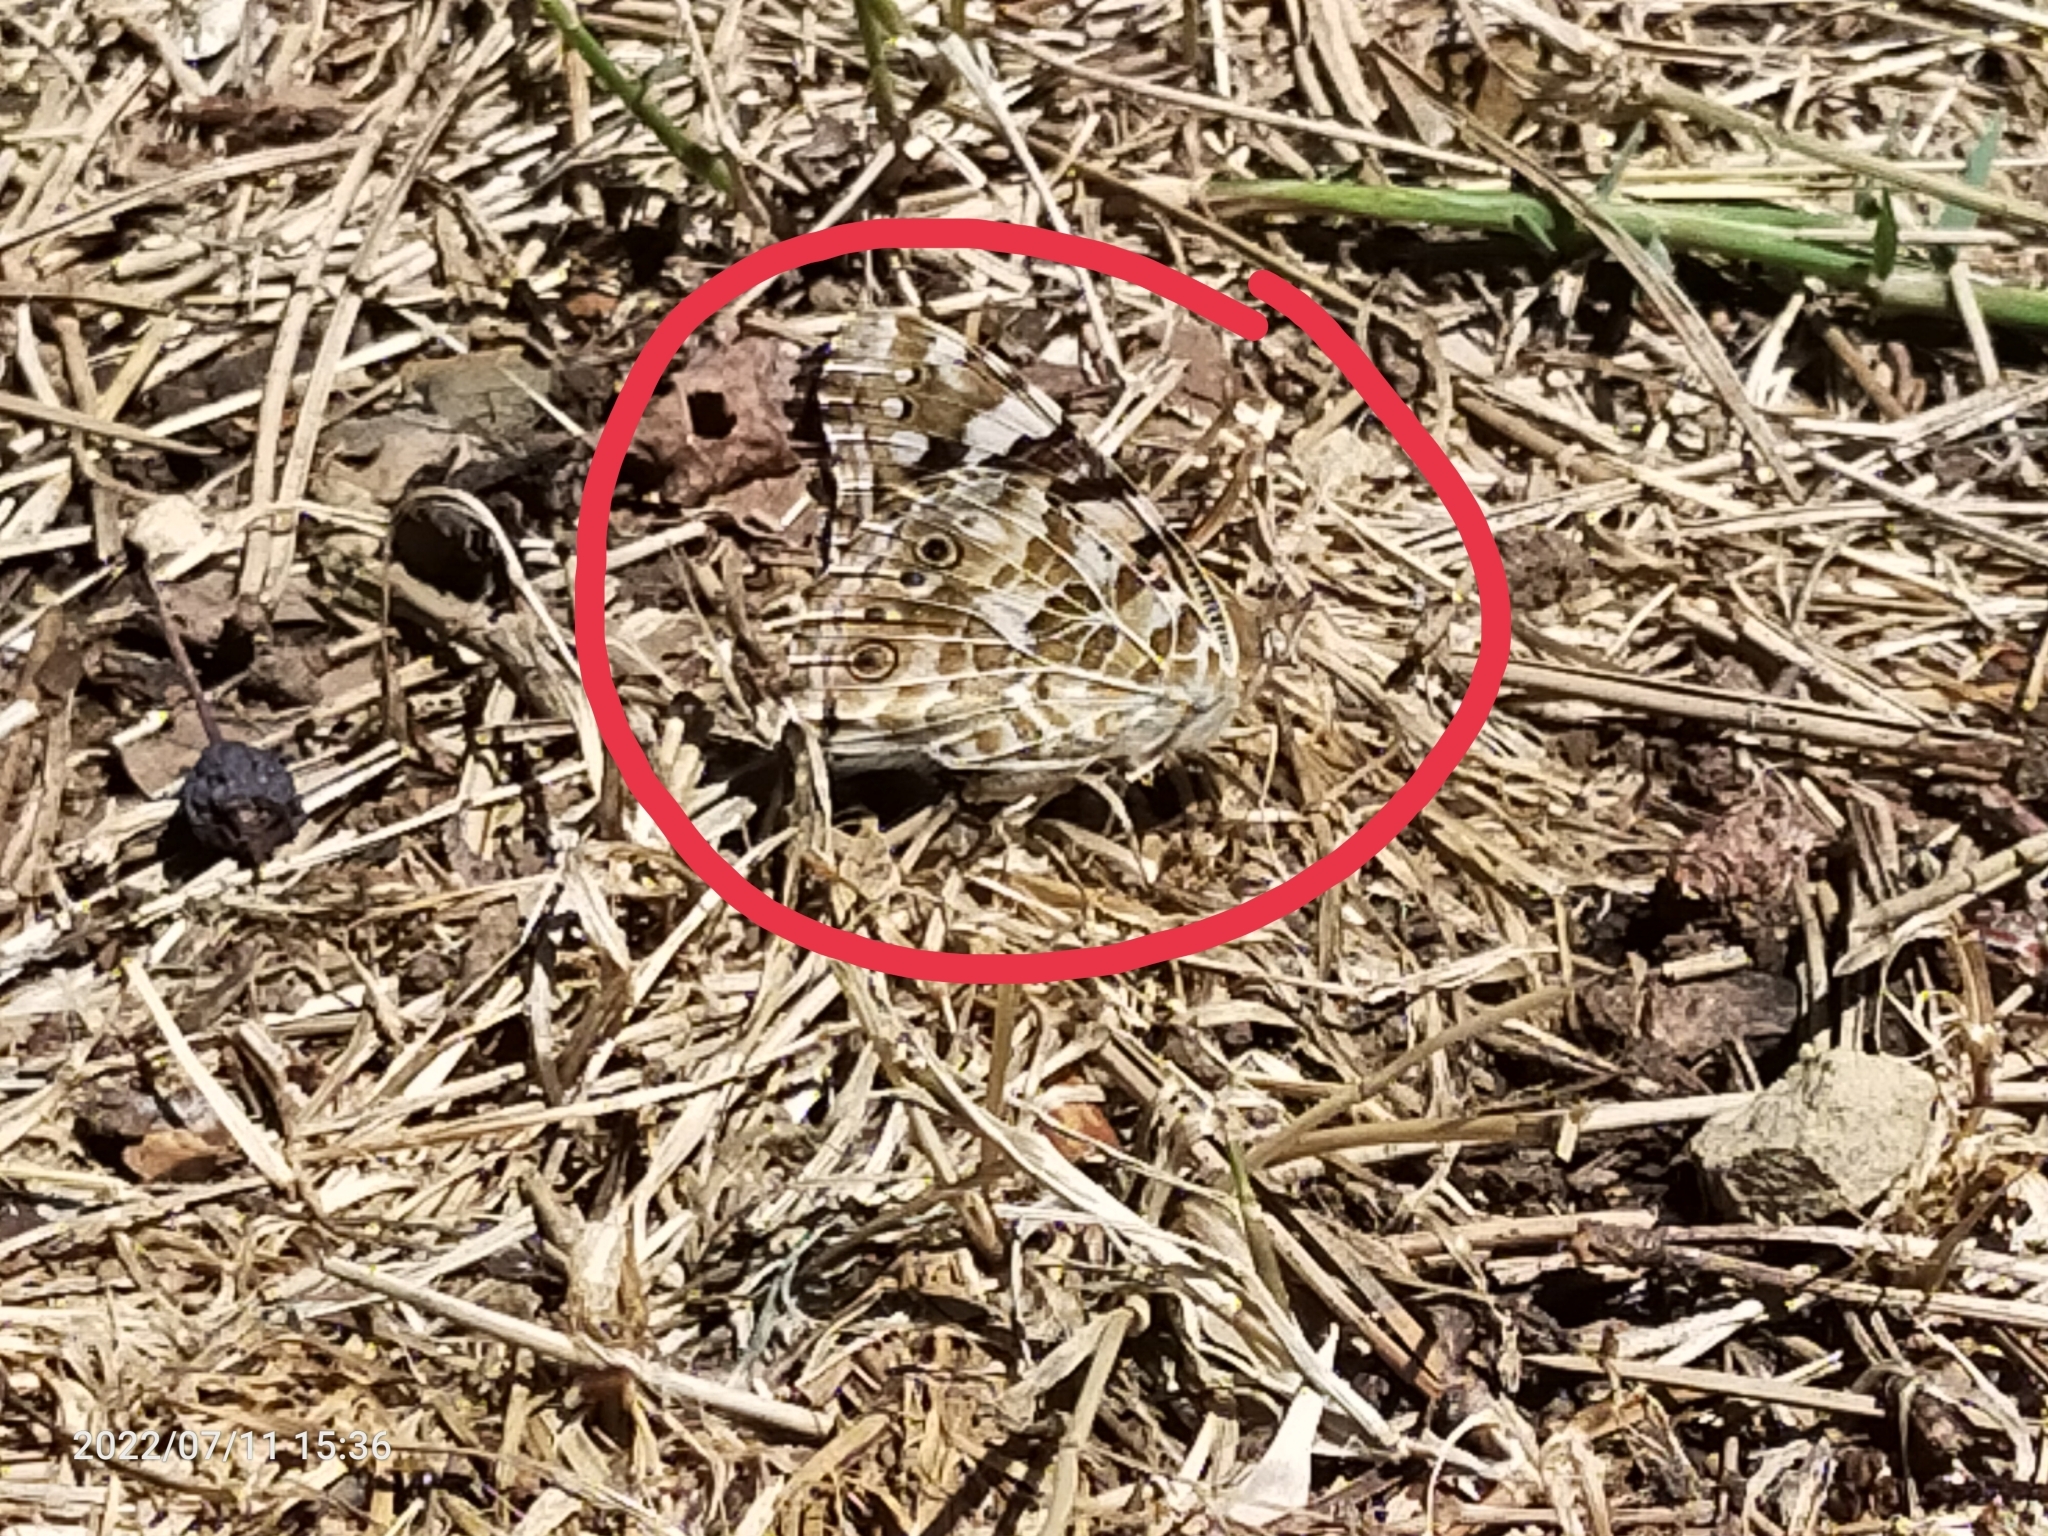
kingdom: Animalia
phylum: Arthropoda
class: Insecta
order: Lepidoptera
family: Nymphalidae
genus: Vanessa
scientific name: Vanessa cardui
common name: Painted lady
